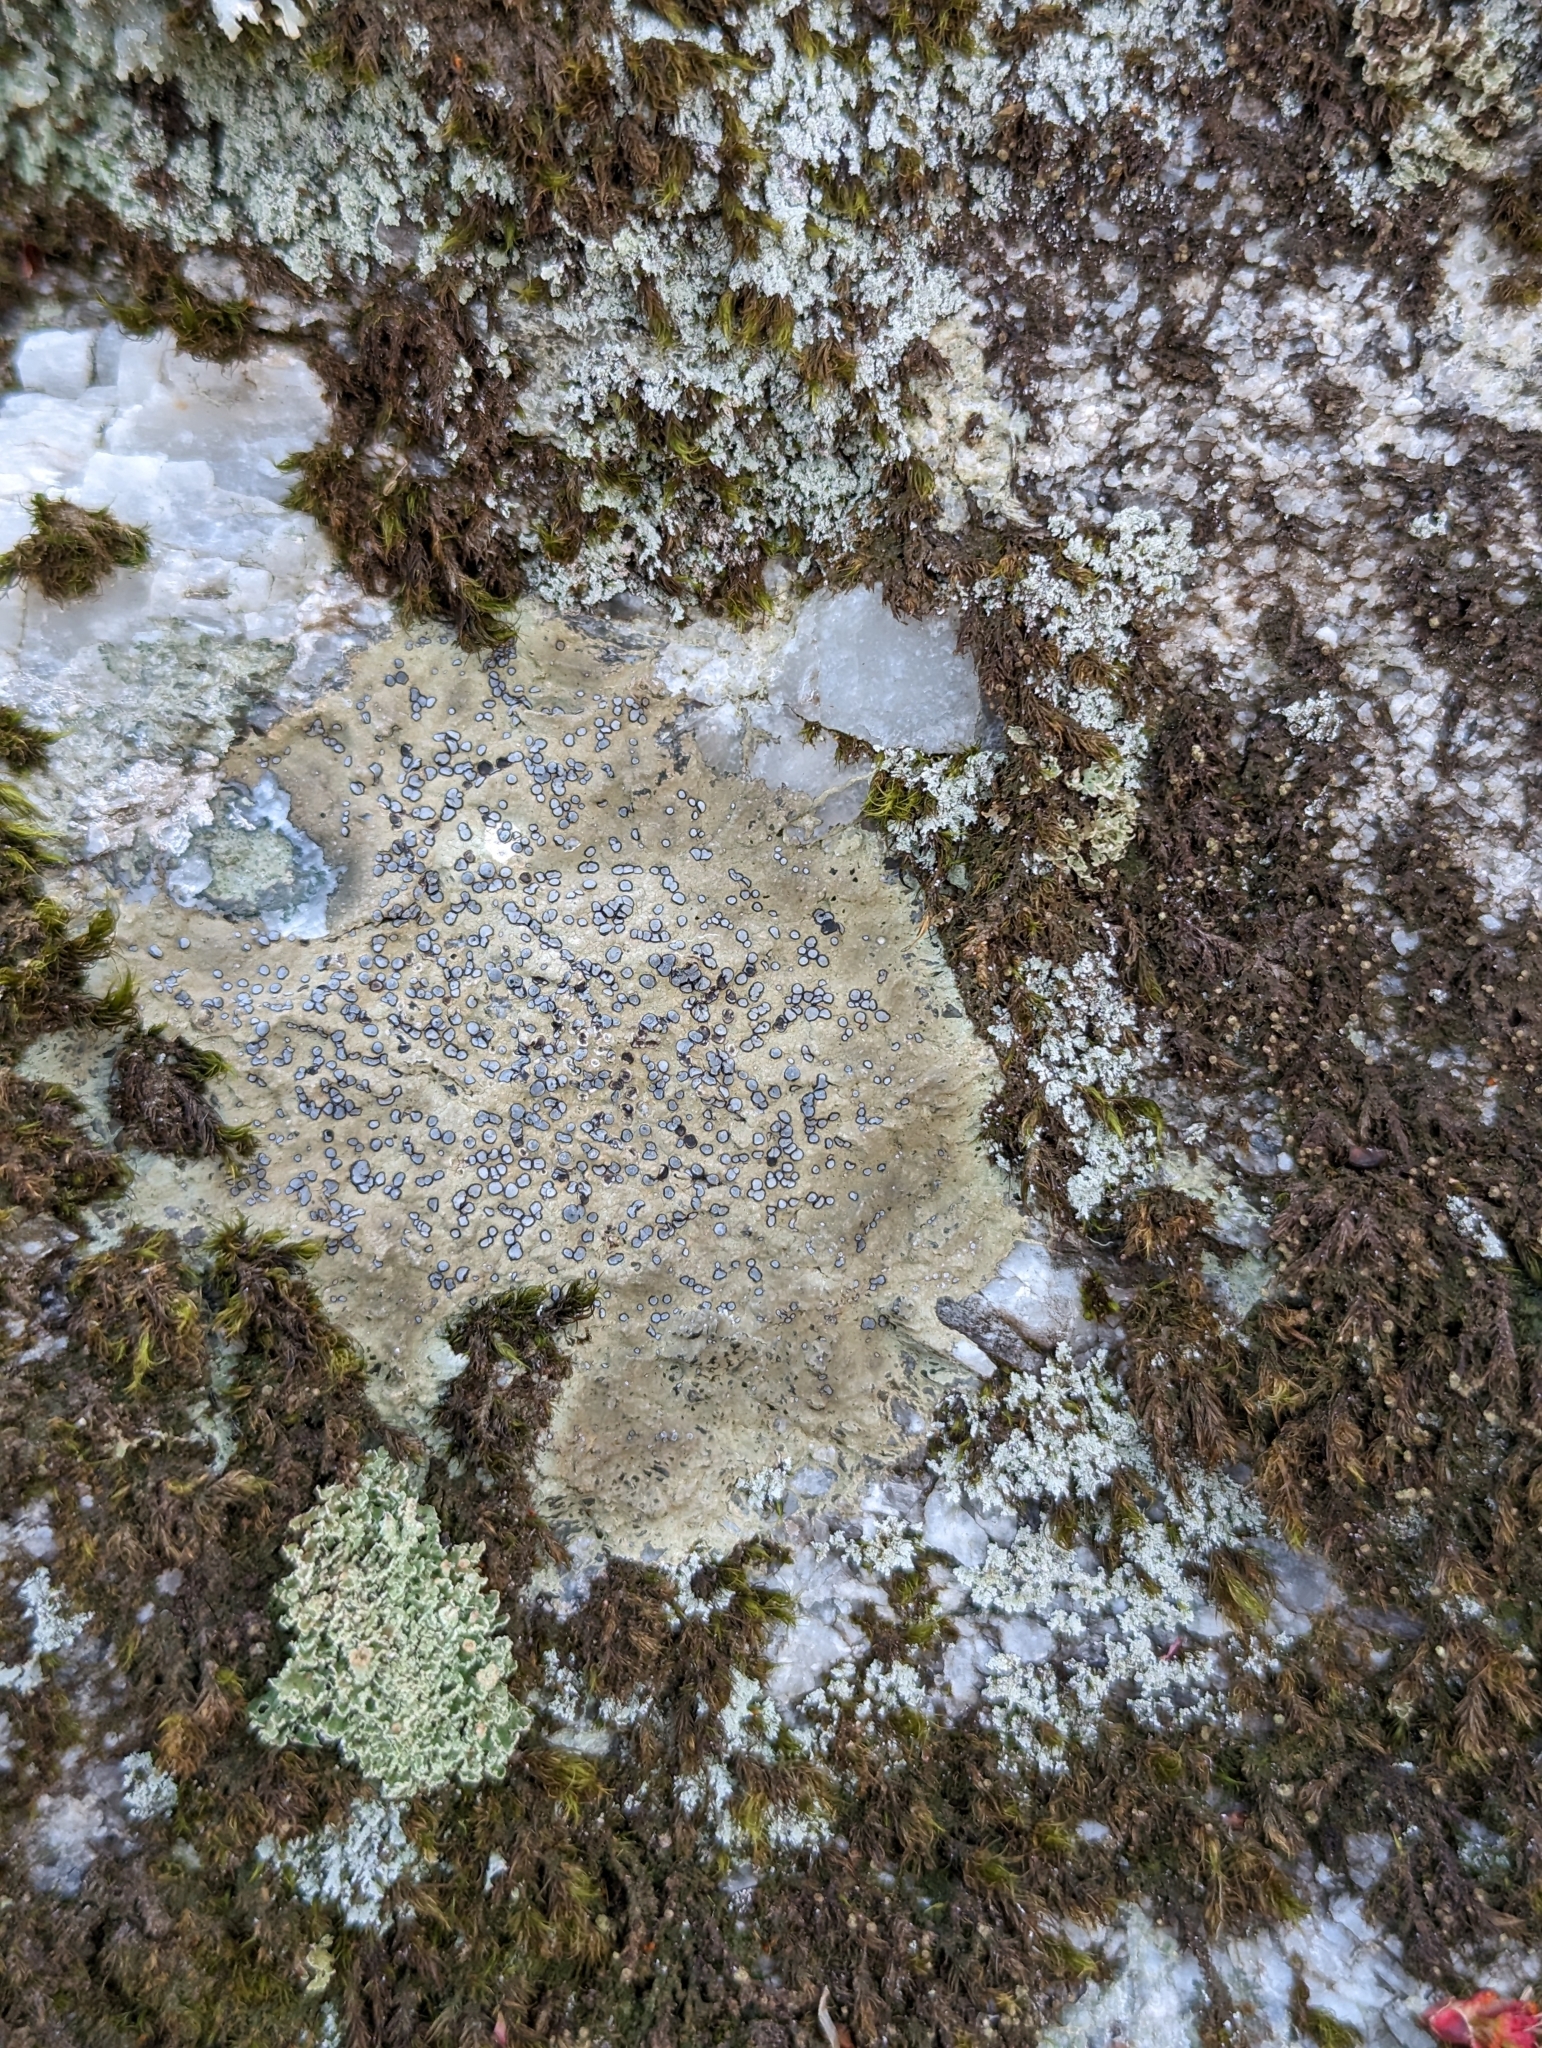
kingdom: Fungi
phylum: Ascomycota
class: Lecanoromycetes
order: Lecideales
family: Lecideaceae
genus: Porpidia
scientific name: Porpidia albocaerulescens
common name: Smokey-eyed boulder lichen
